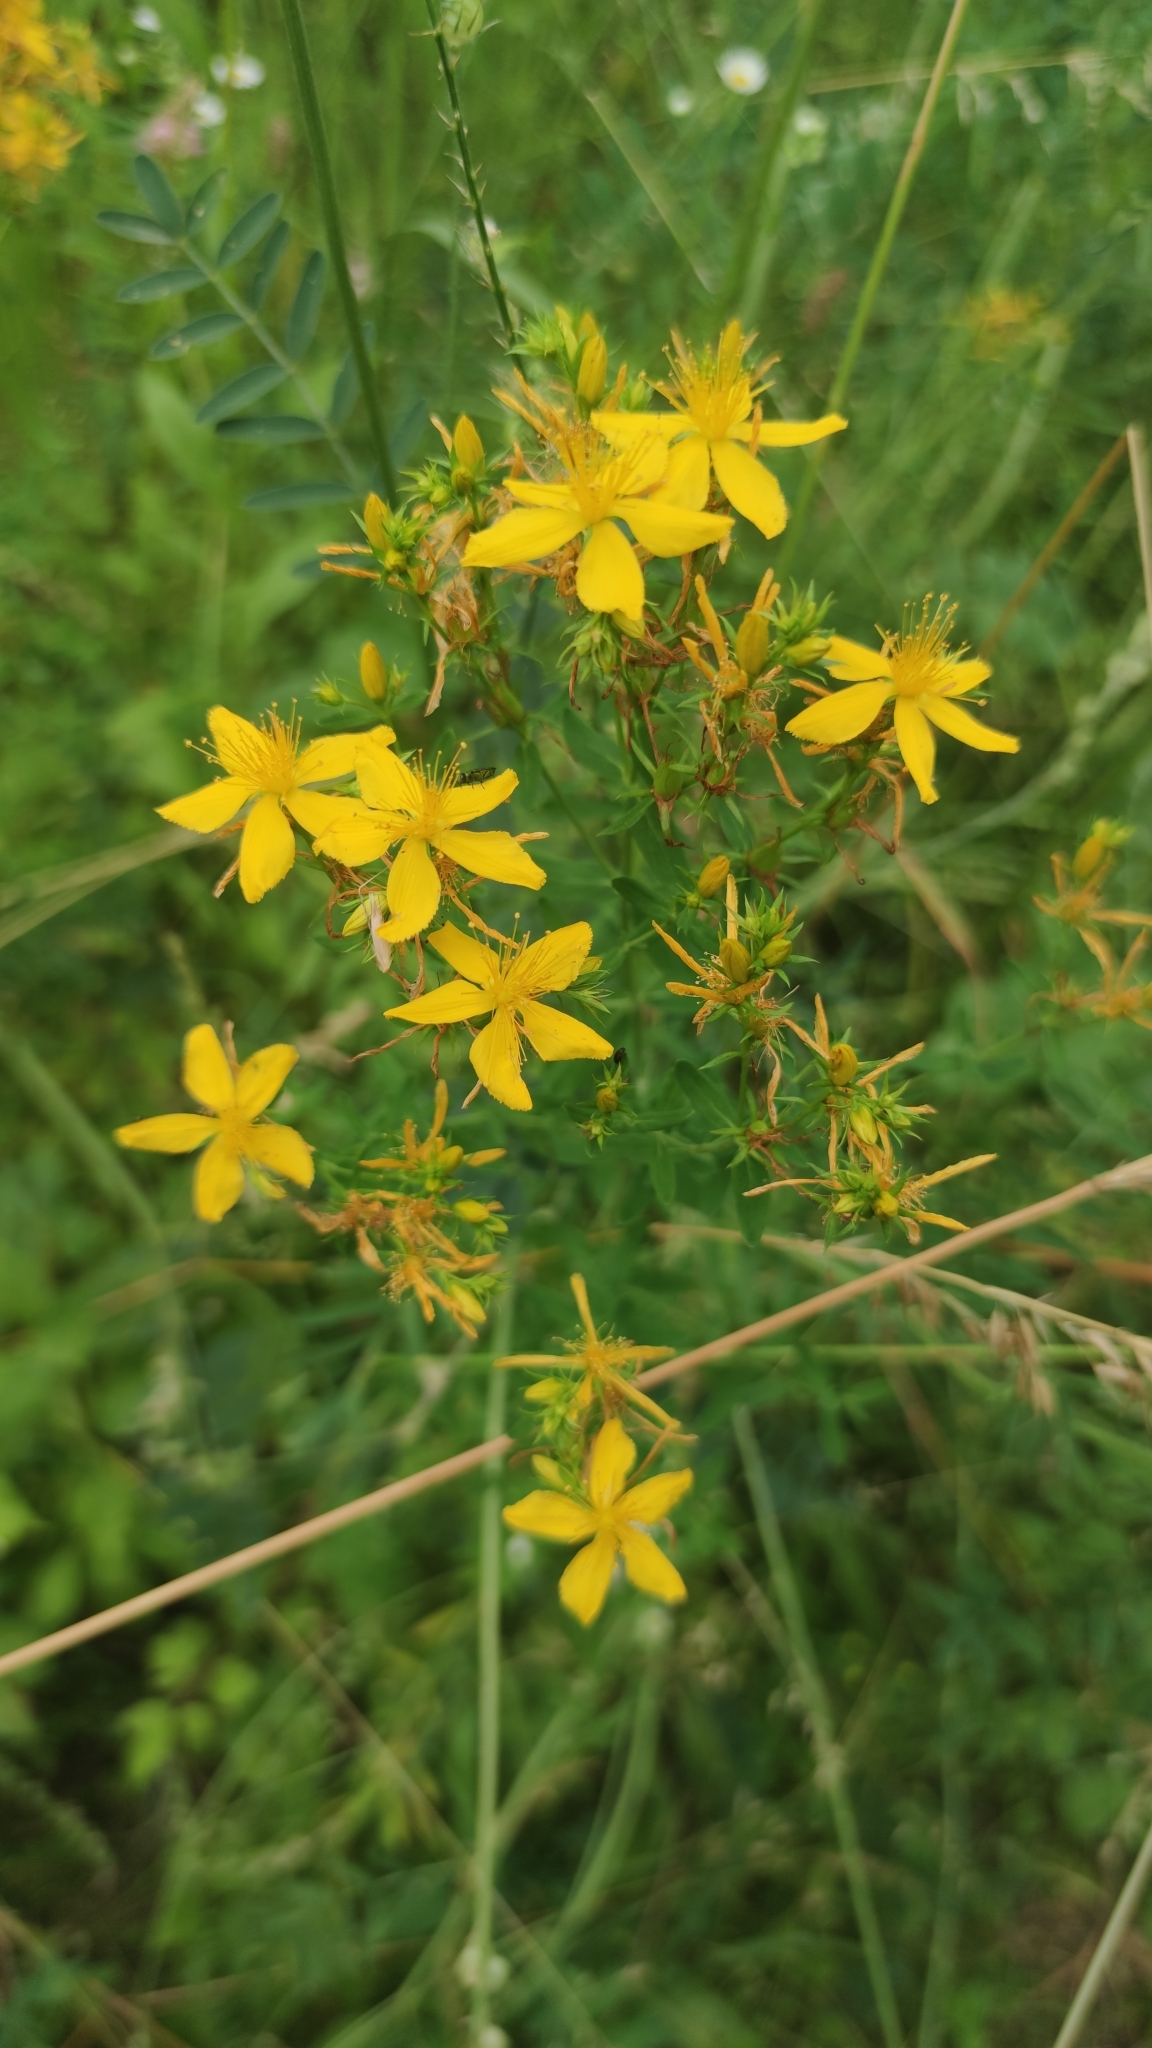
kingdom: Plantae
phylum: Tracheophyta
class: Magnoliopsida
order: Malpighiales
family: Hypericaceae
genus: Hypericum
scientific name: Hypericum perforatum
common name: Common st. johnswort
